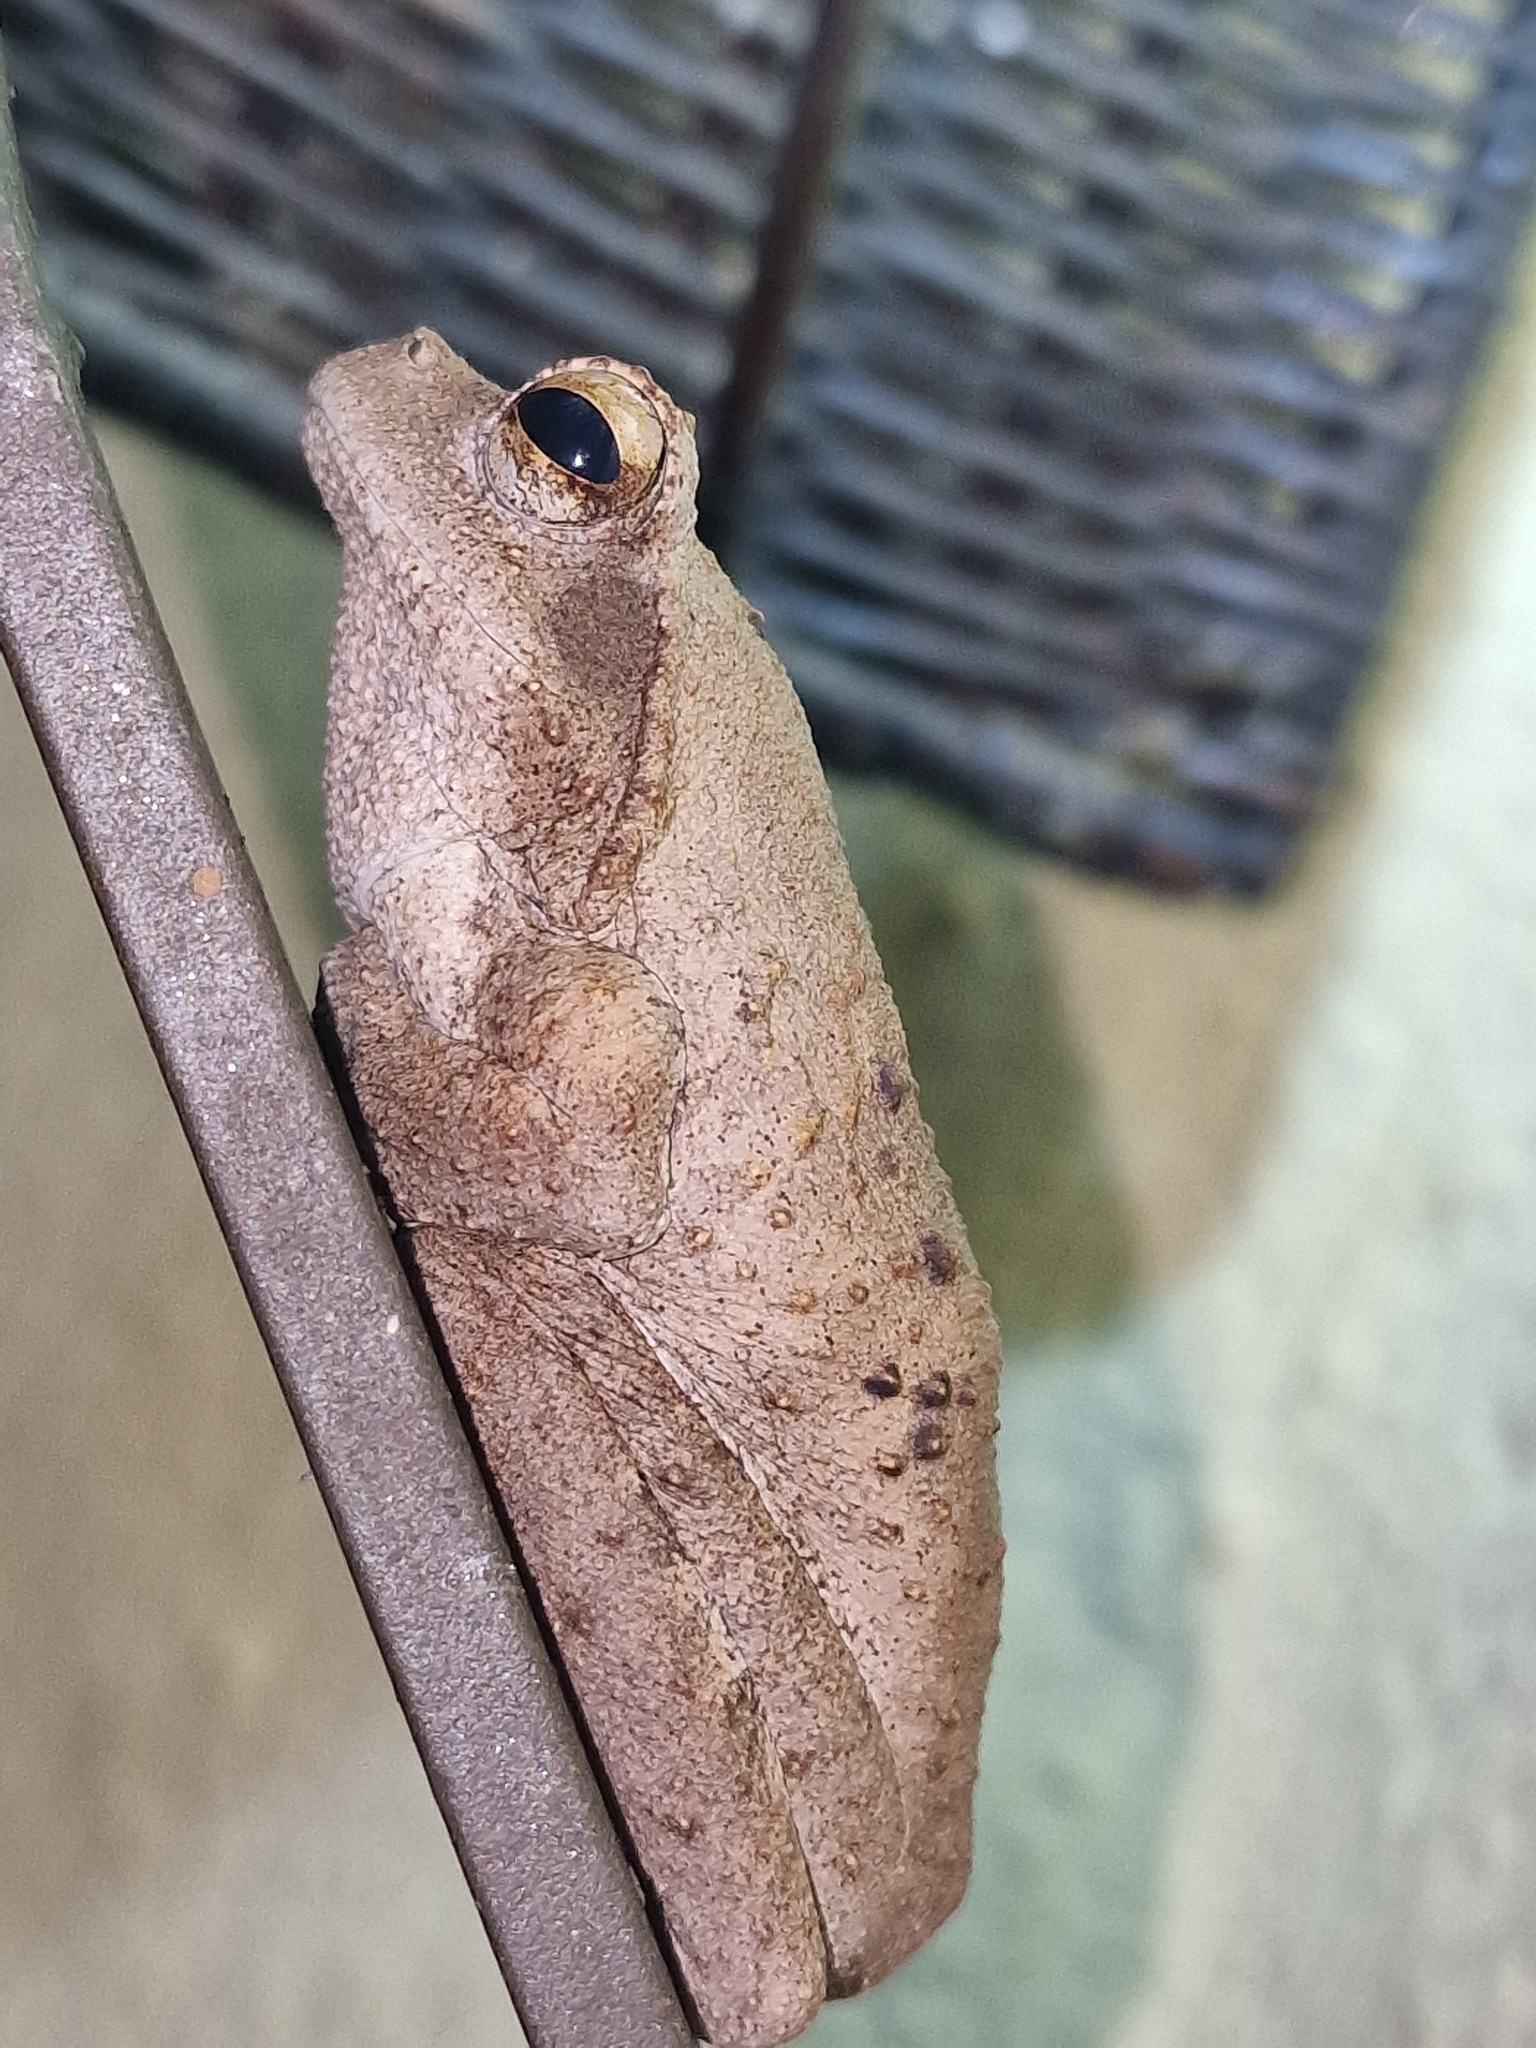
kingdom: Animalia
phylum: Chordata
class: Amphibia
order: Anura
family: Rhacophoridae
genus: Chiromantis
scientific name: Chiromantis xerampelina
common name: African gray treefrog
